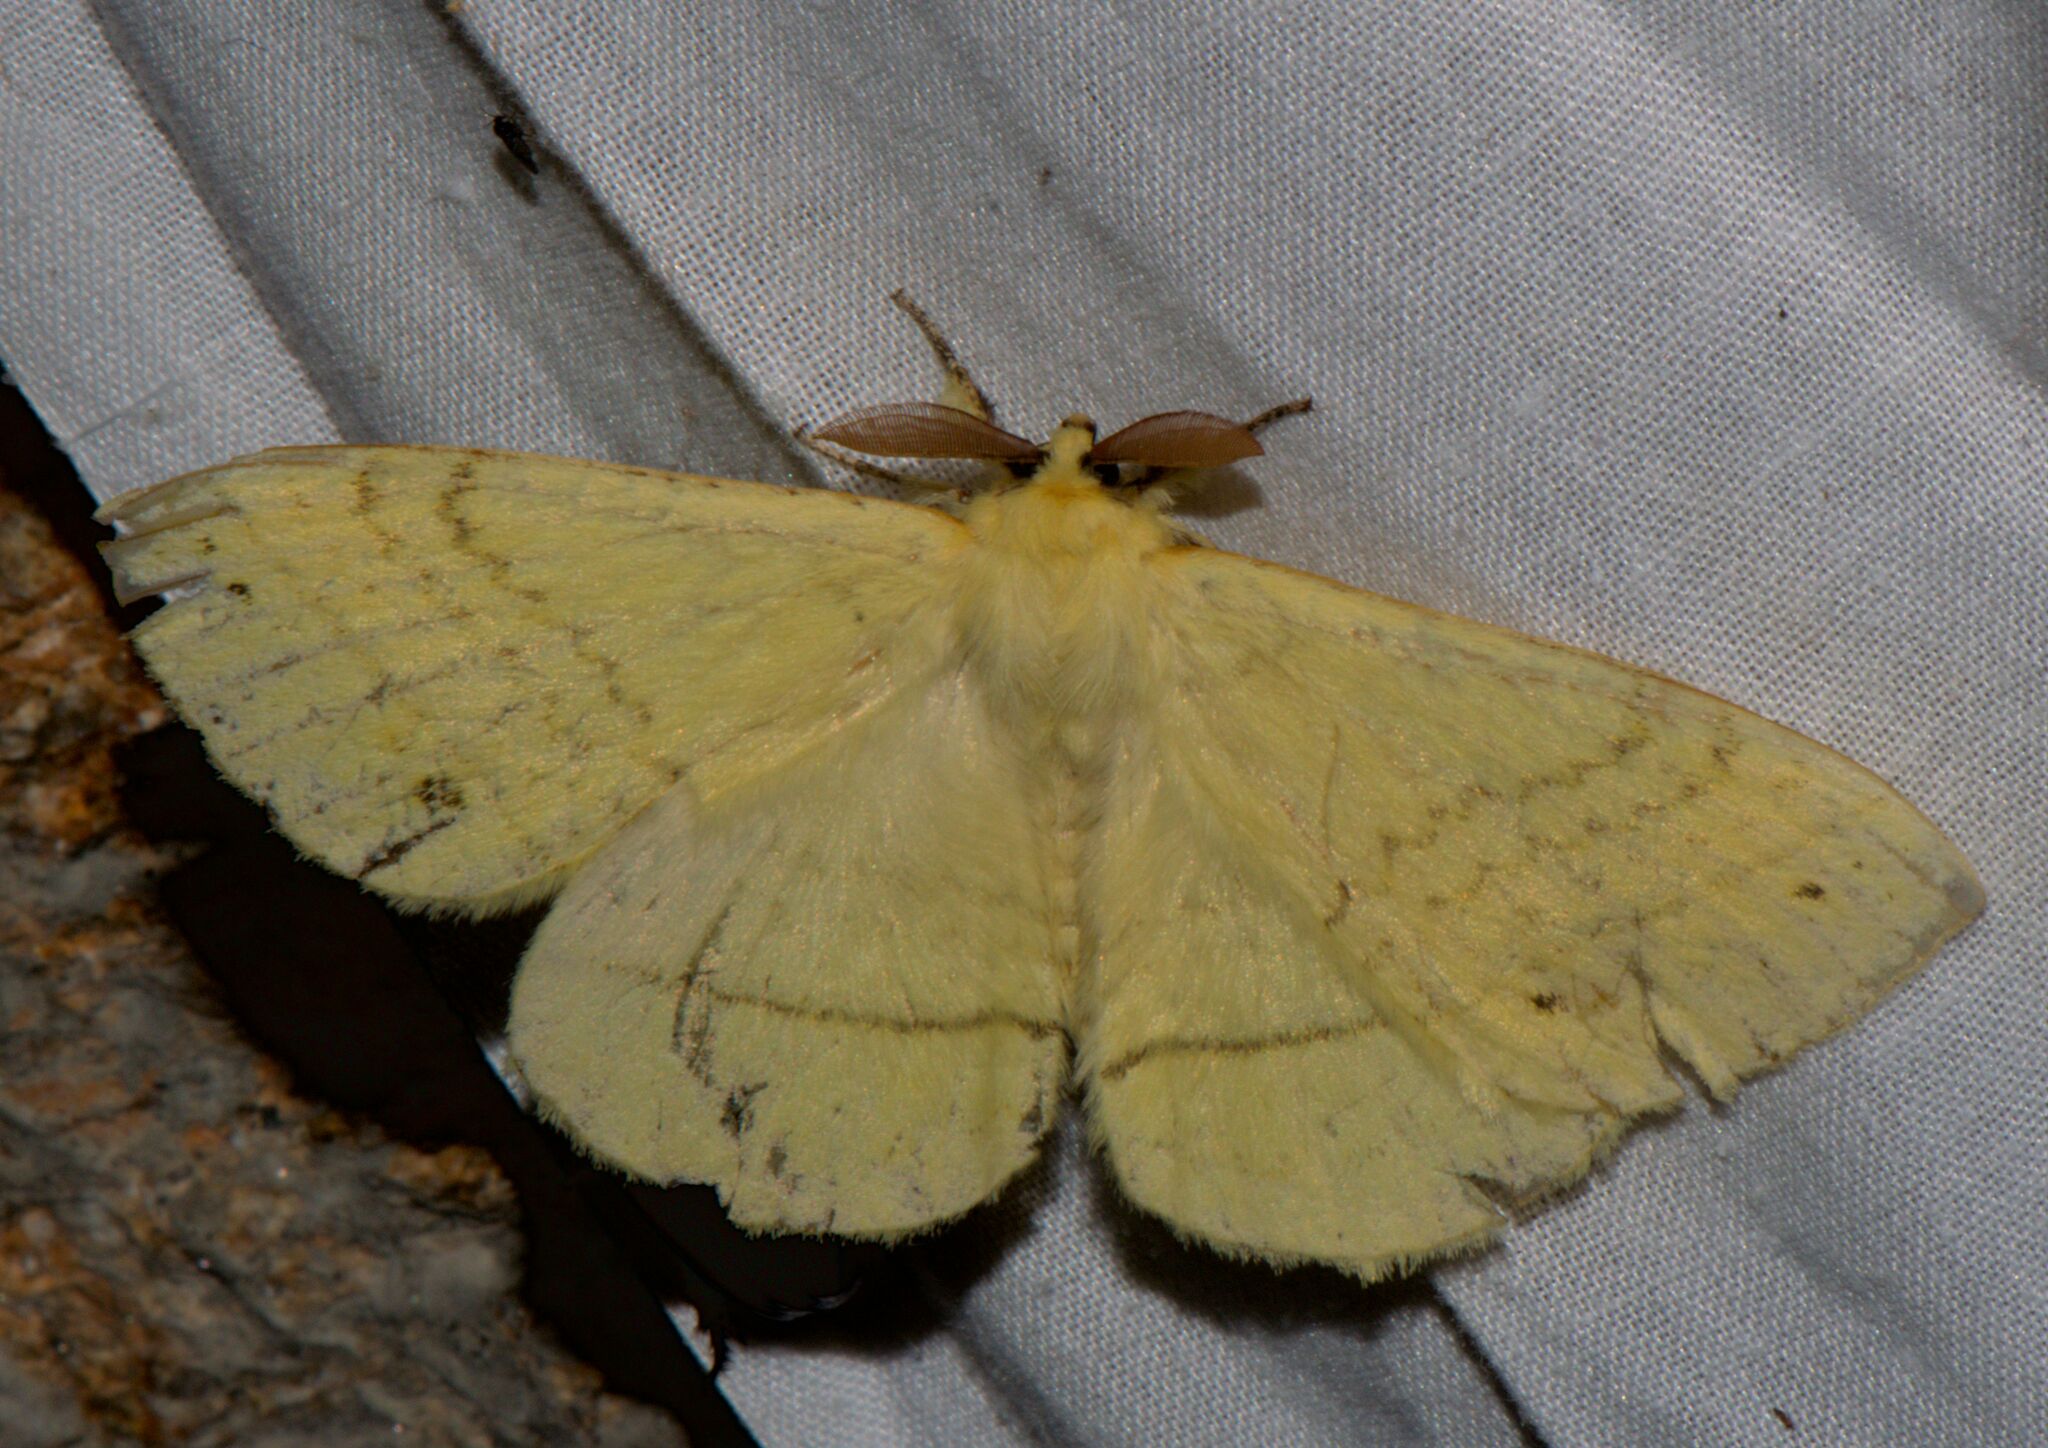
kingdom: Animalia
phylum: Arthropoda
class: Insecta
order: Lepidoptera
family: Eupterotidae
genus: Eupterote
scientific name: Eupterote undata
